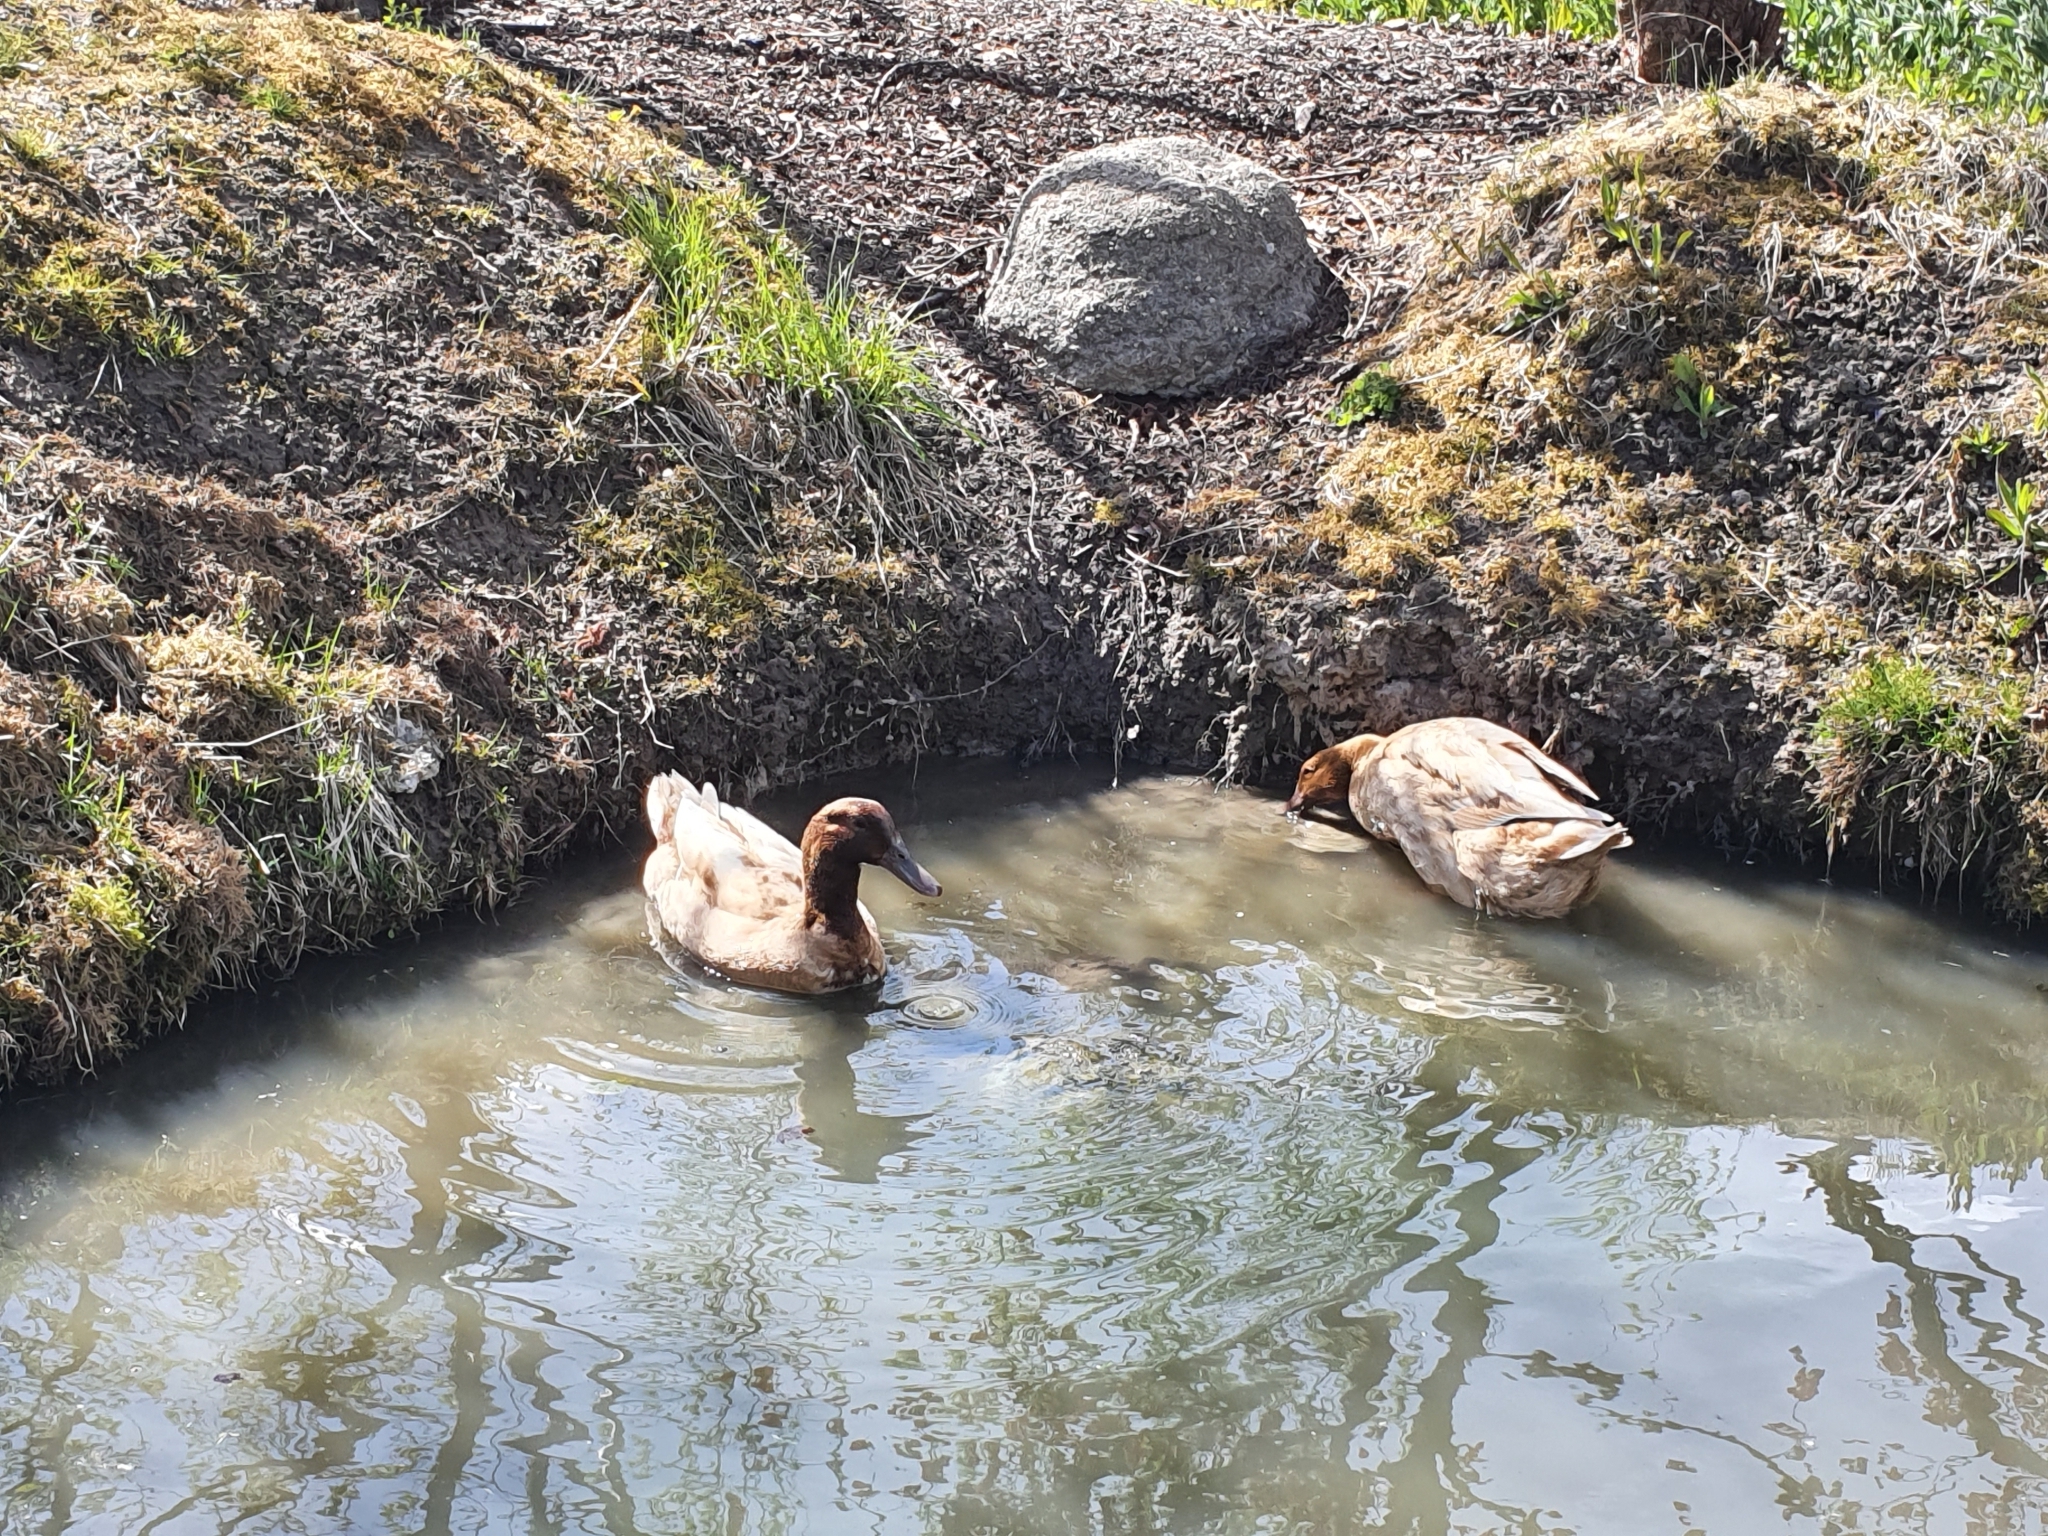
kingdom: Animalia
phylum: Chordata
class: Aves
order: Anseriformes
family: Anatidae
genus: Anas
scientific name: Anas platyrhynchos
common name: Mallard
